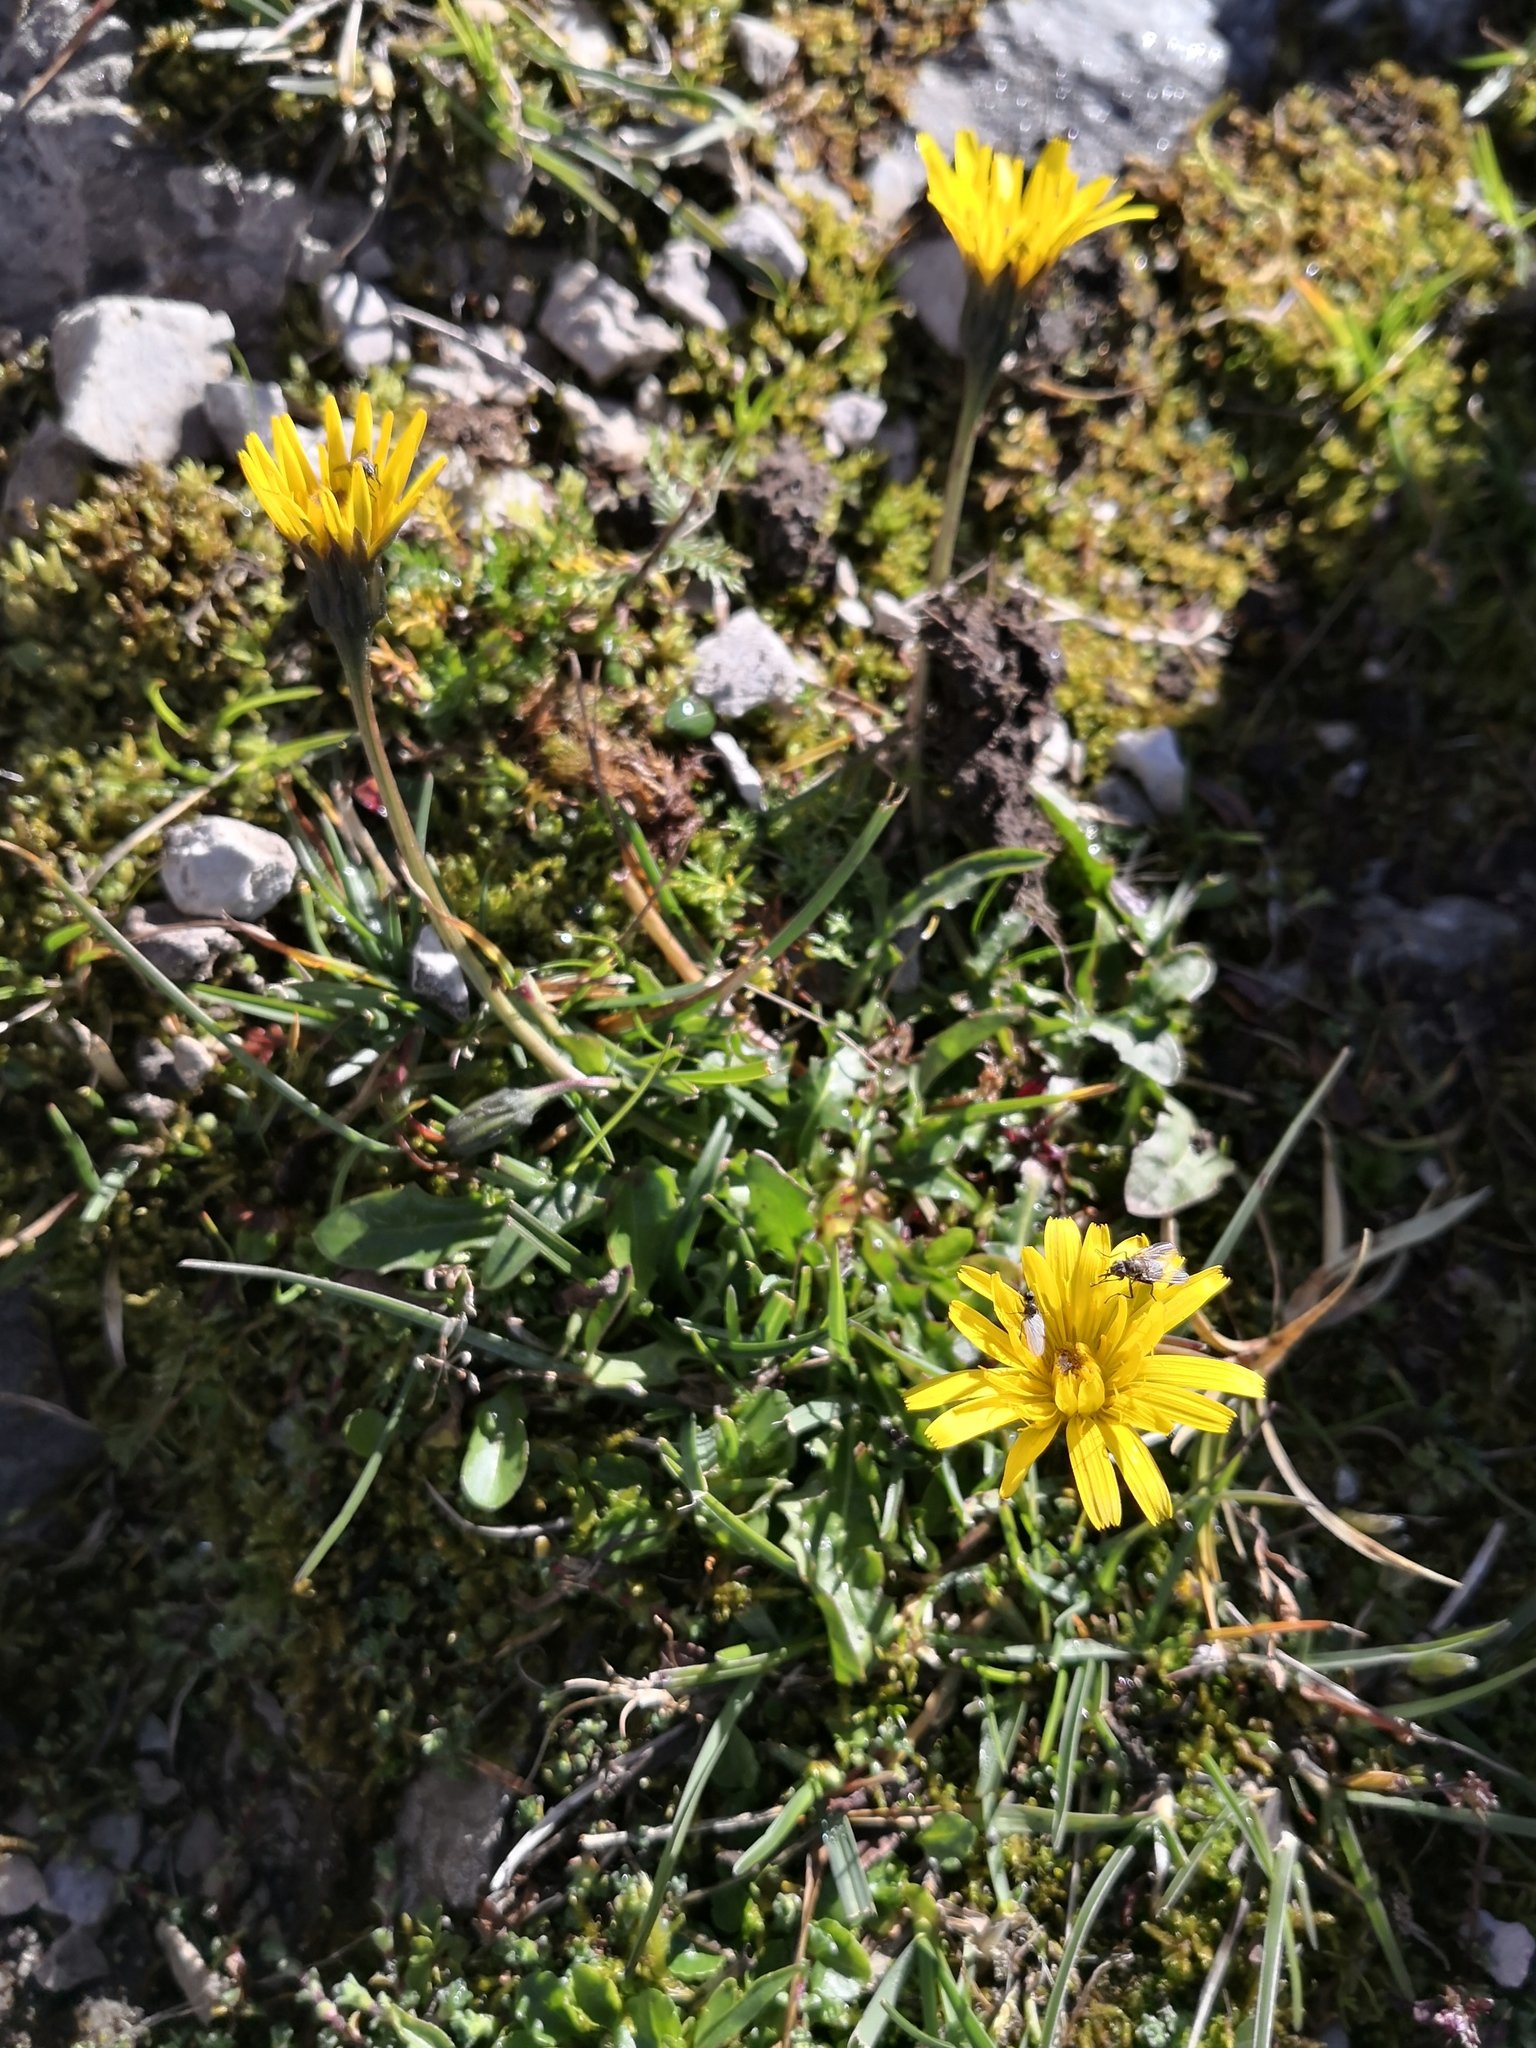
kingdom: Plantae
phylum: Tracheophyta
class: Magnoliopsida
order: Asterales
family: Asteraceae
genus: Scorzoneroides
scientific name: Scorzoneroides helvetica
